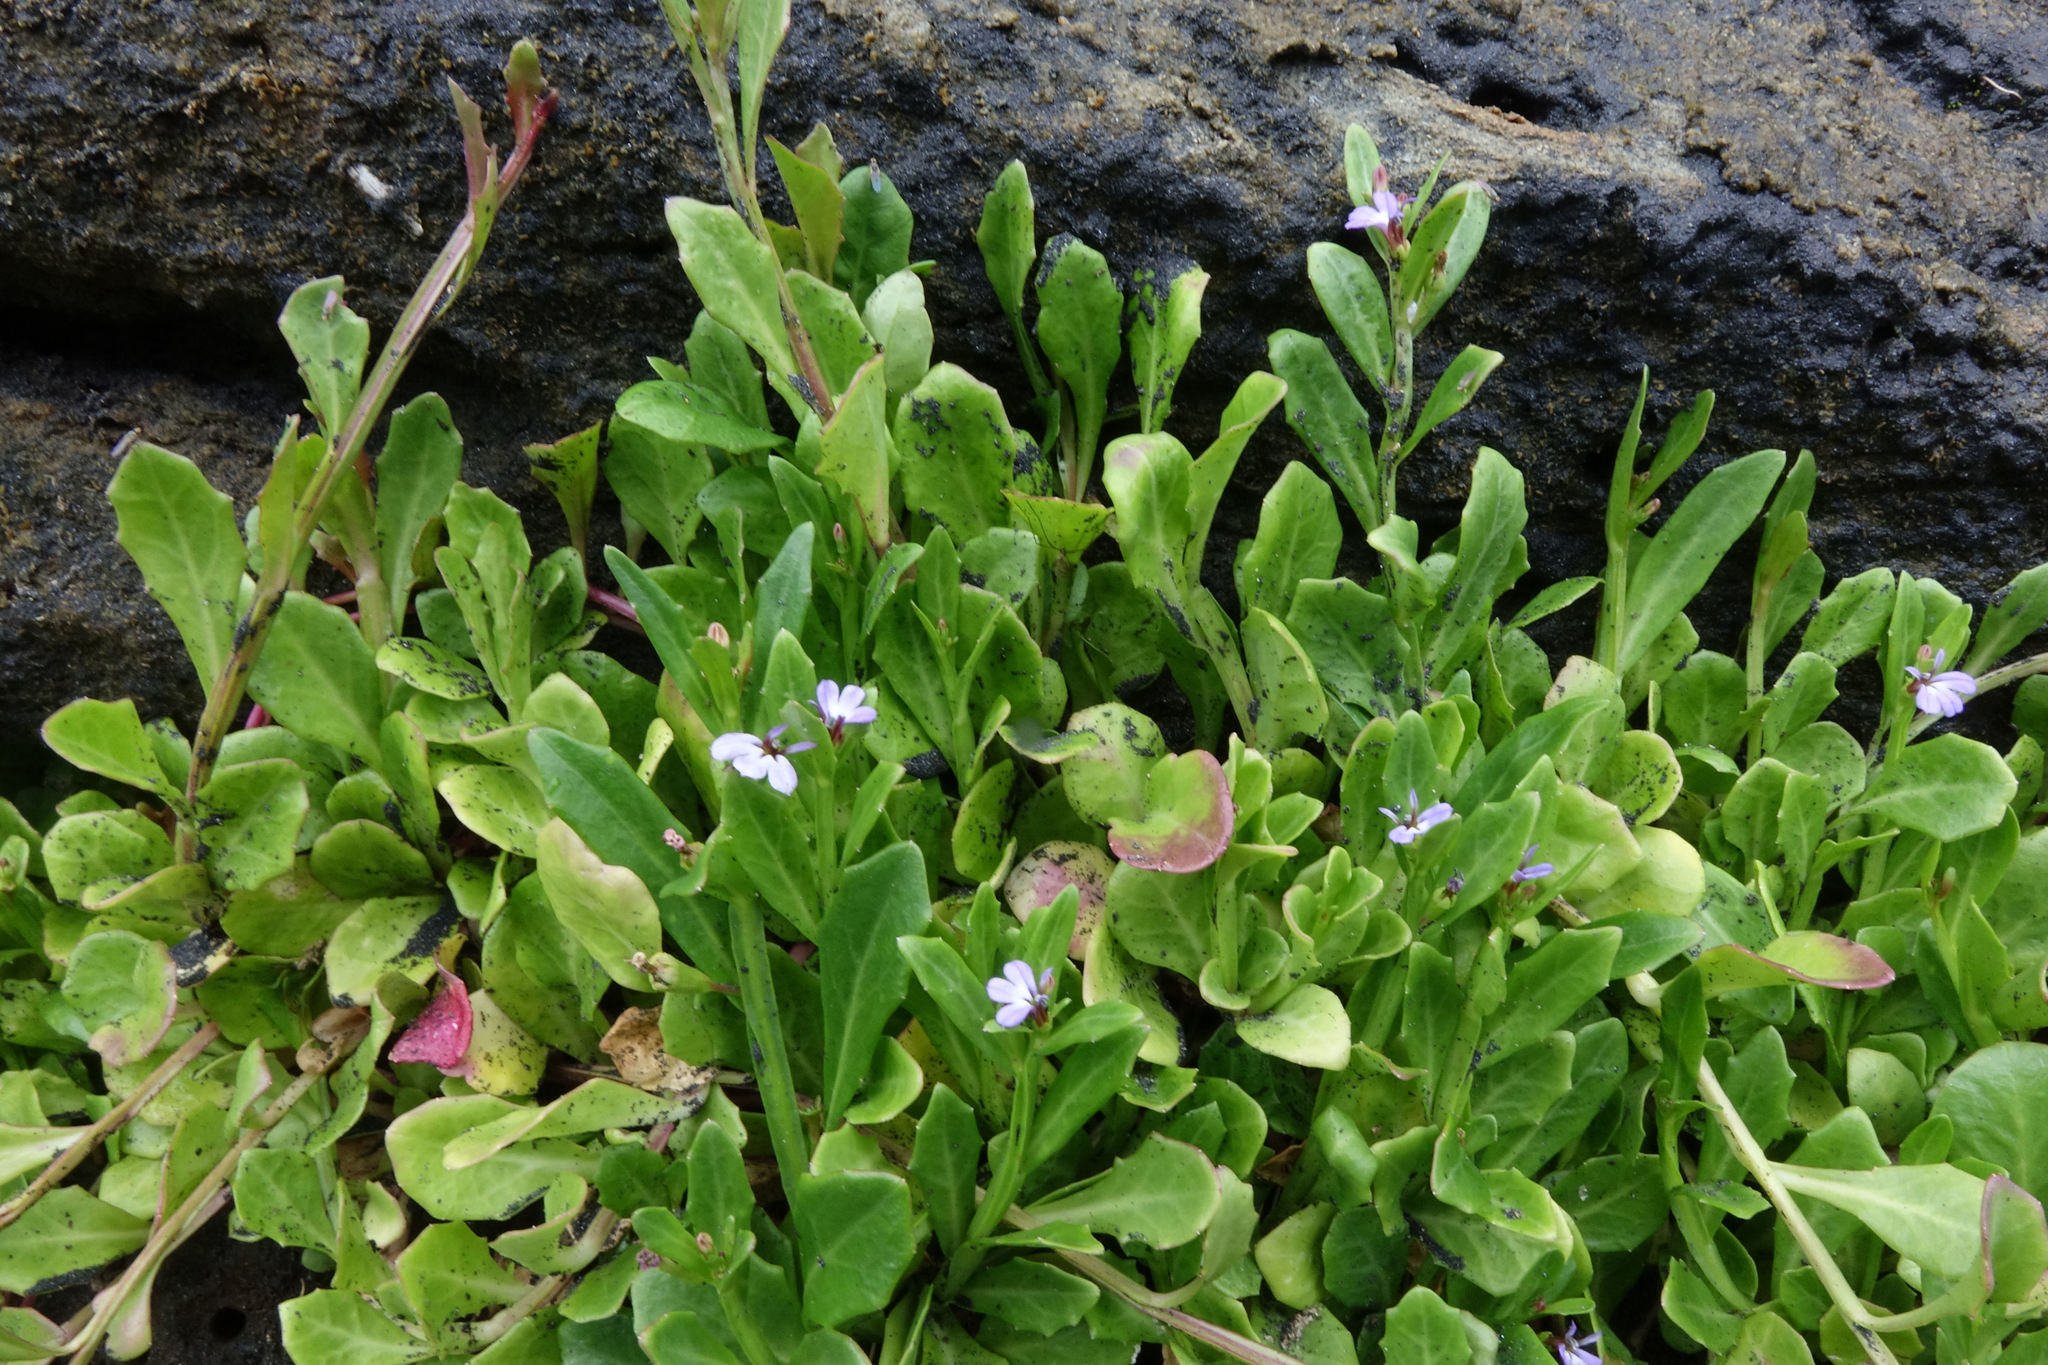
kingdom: Plantae
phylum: Tracheophyta
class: Magnoliopsida
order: Asterales
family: Campanulaceae
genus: Lobelia
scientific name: Lobelia anceps
